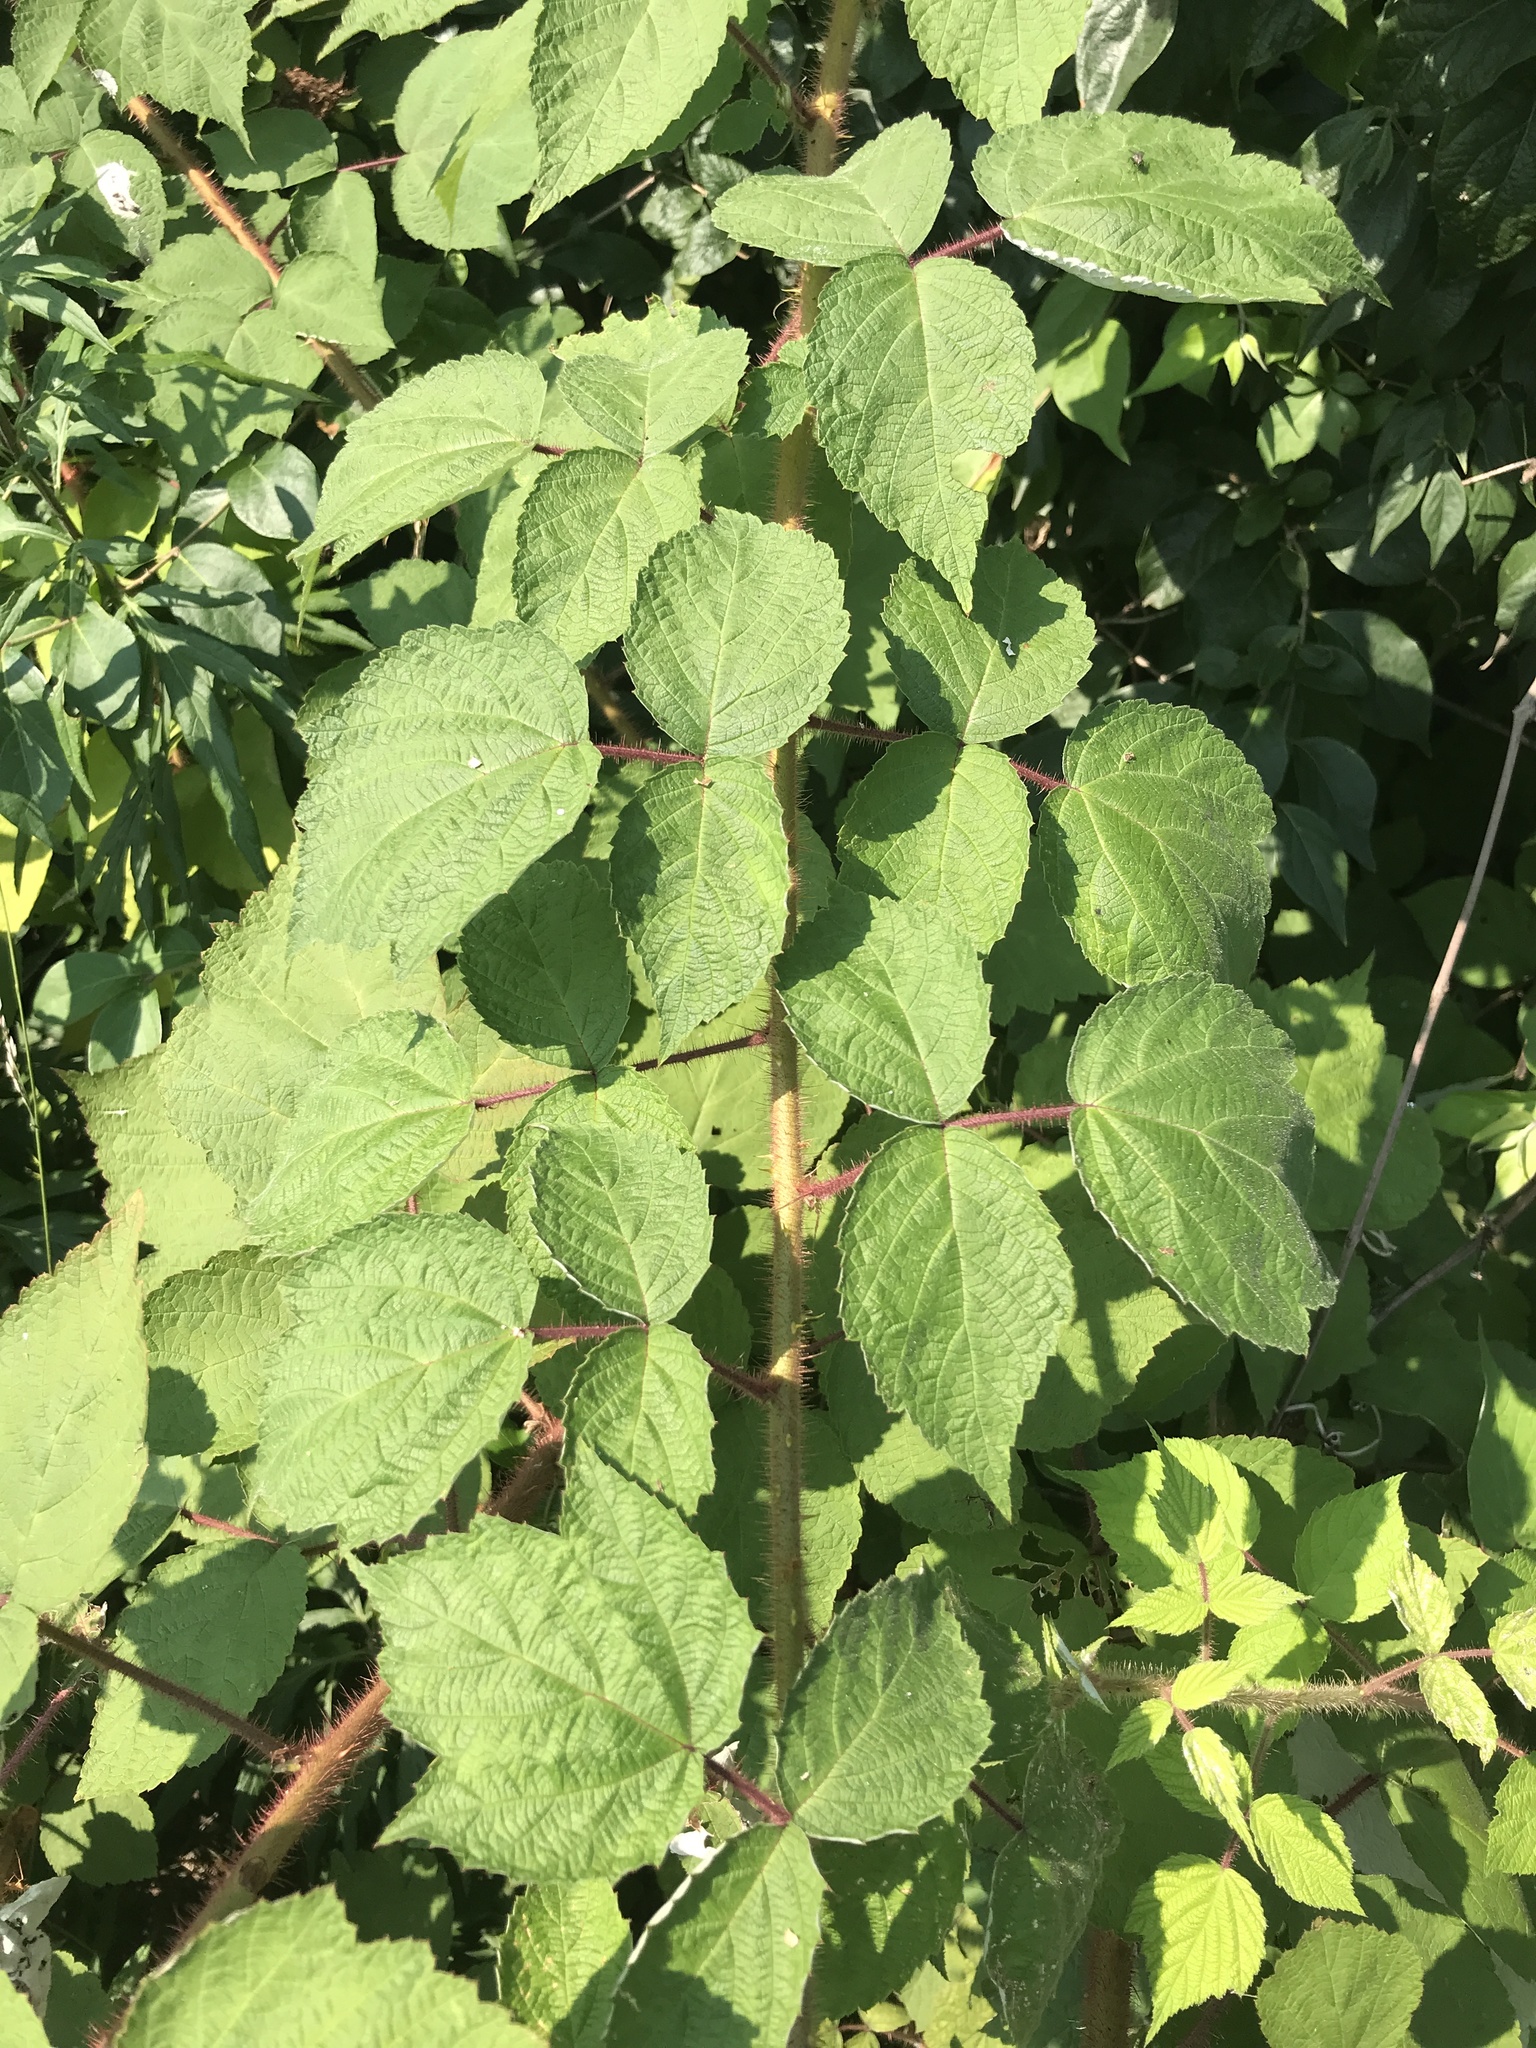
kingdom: Plantae
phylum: Tracheophyta
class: Magnoliopsida
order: Rosales
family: Rosaceae
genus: Rubus
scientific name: Rubus phoenicolasius
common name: Japanese wineberry
